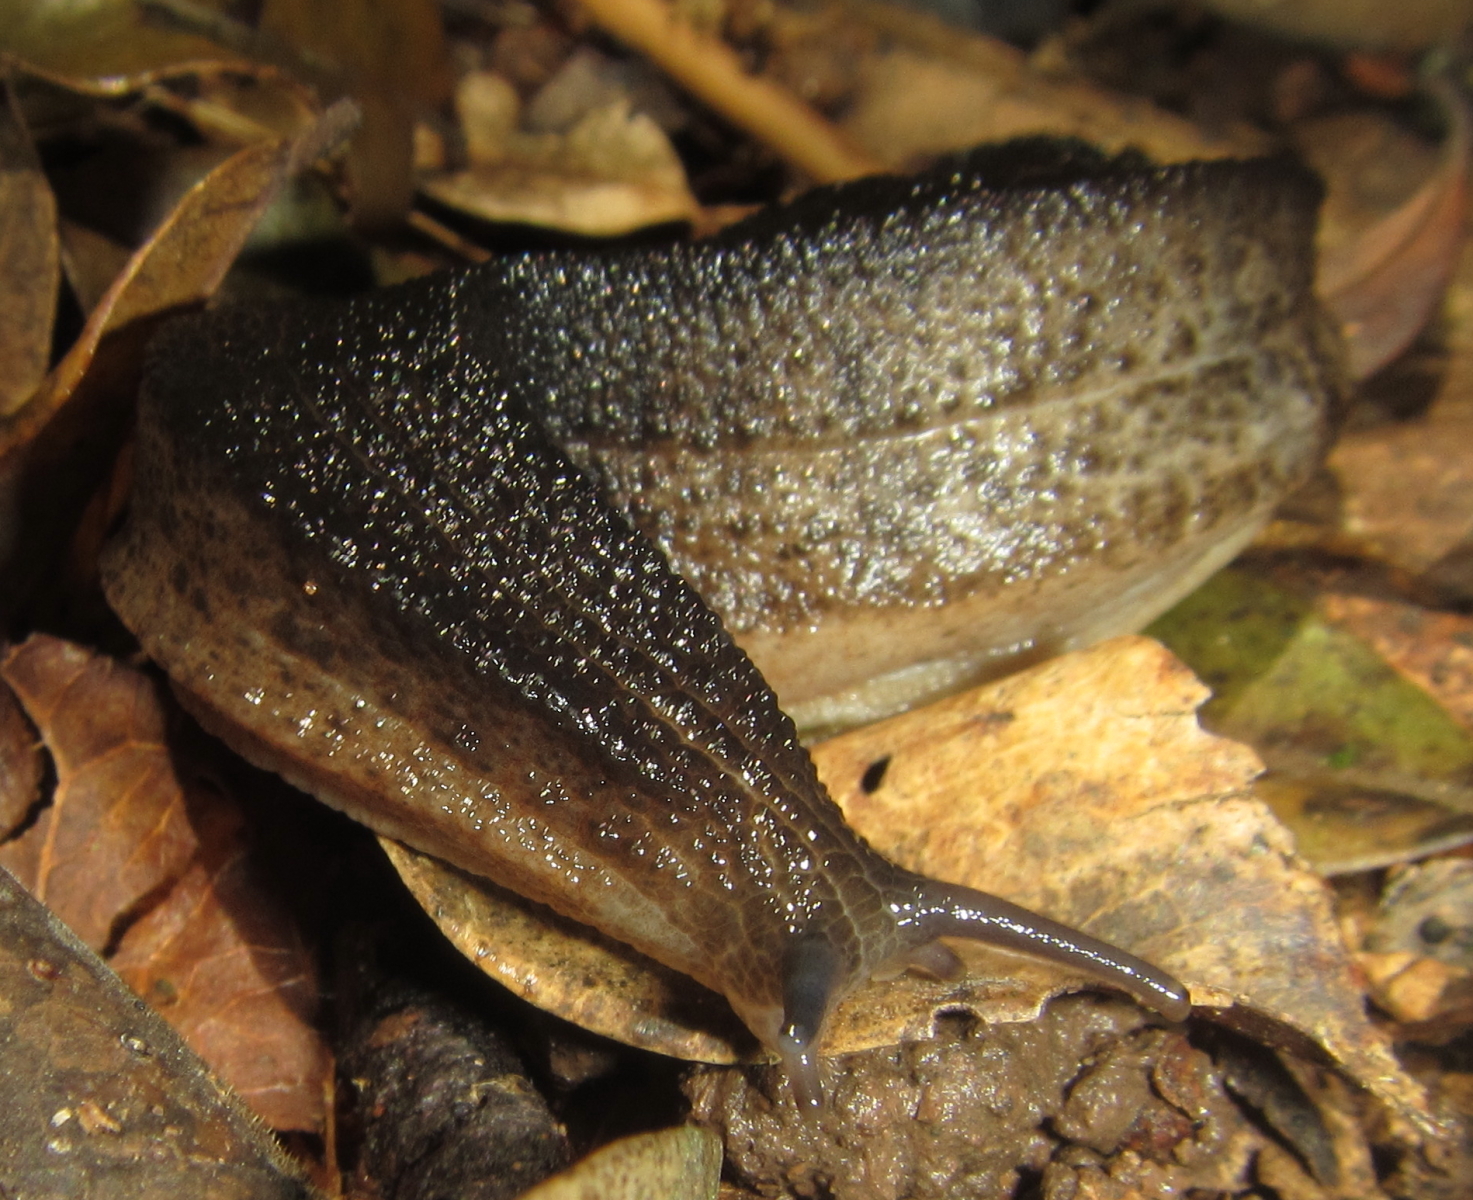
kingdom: Animalia
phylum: Mollusca
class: Gastropoda
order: Stylommatophora
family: Rhytididae
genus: Chlamydephorus
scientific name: Chlamydephorus sexangulus
